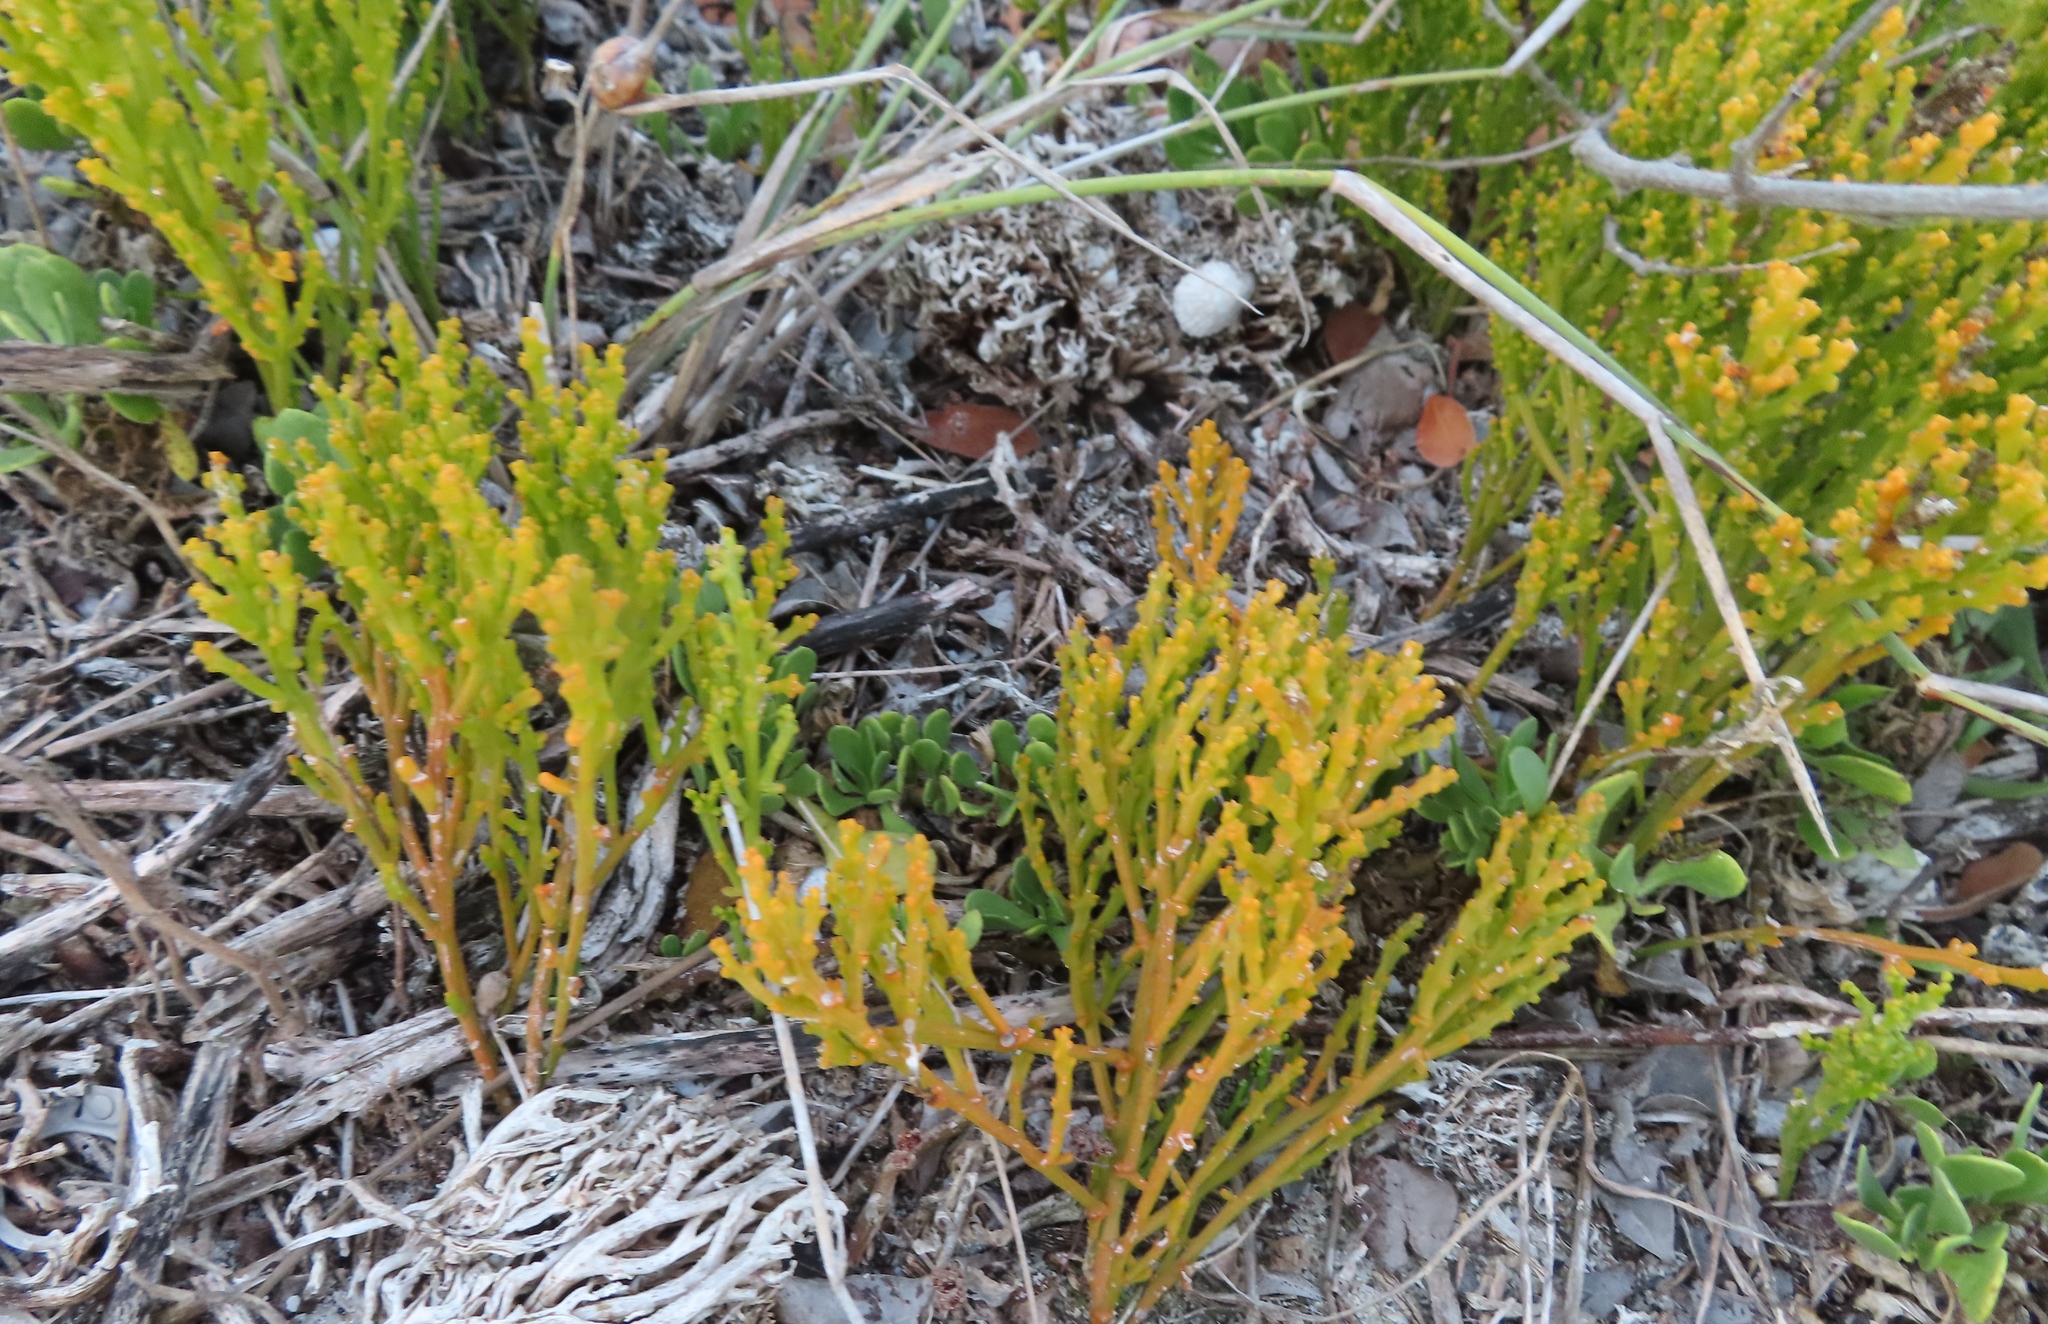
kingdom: Plantae
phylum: Tracheophyta
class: Magnoliopsida
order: Santalales
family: Thesiaceae
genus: Thesium
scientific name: Thesium fragile
